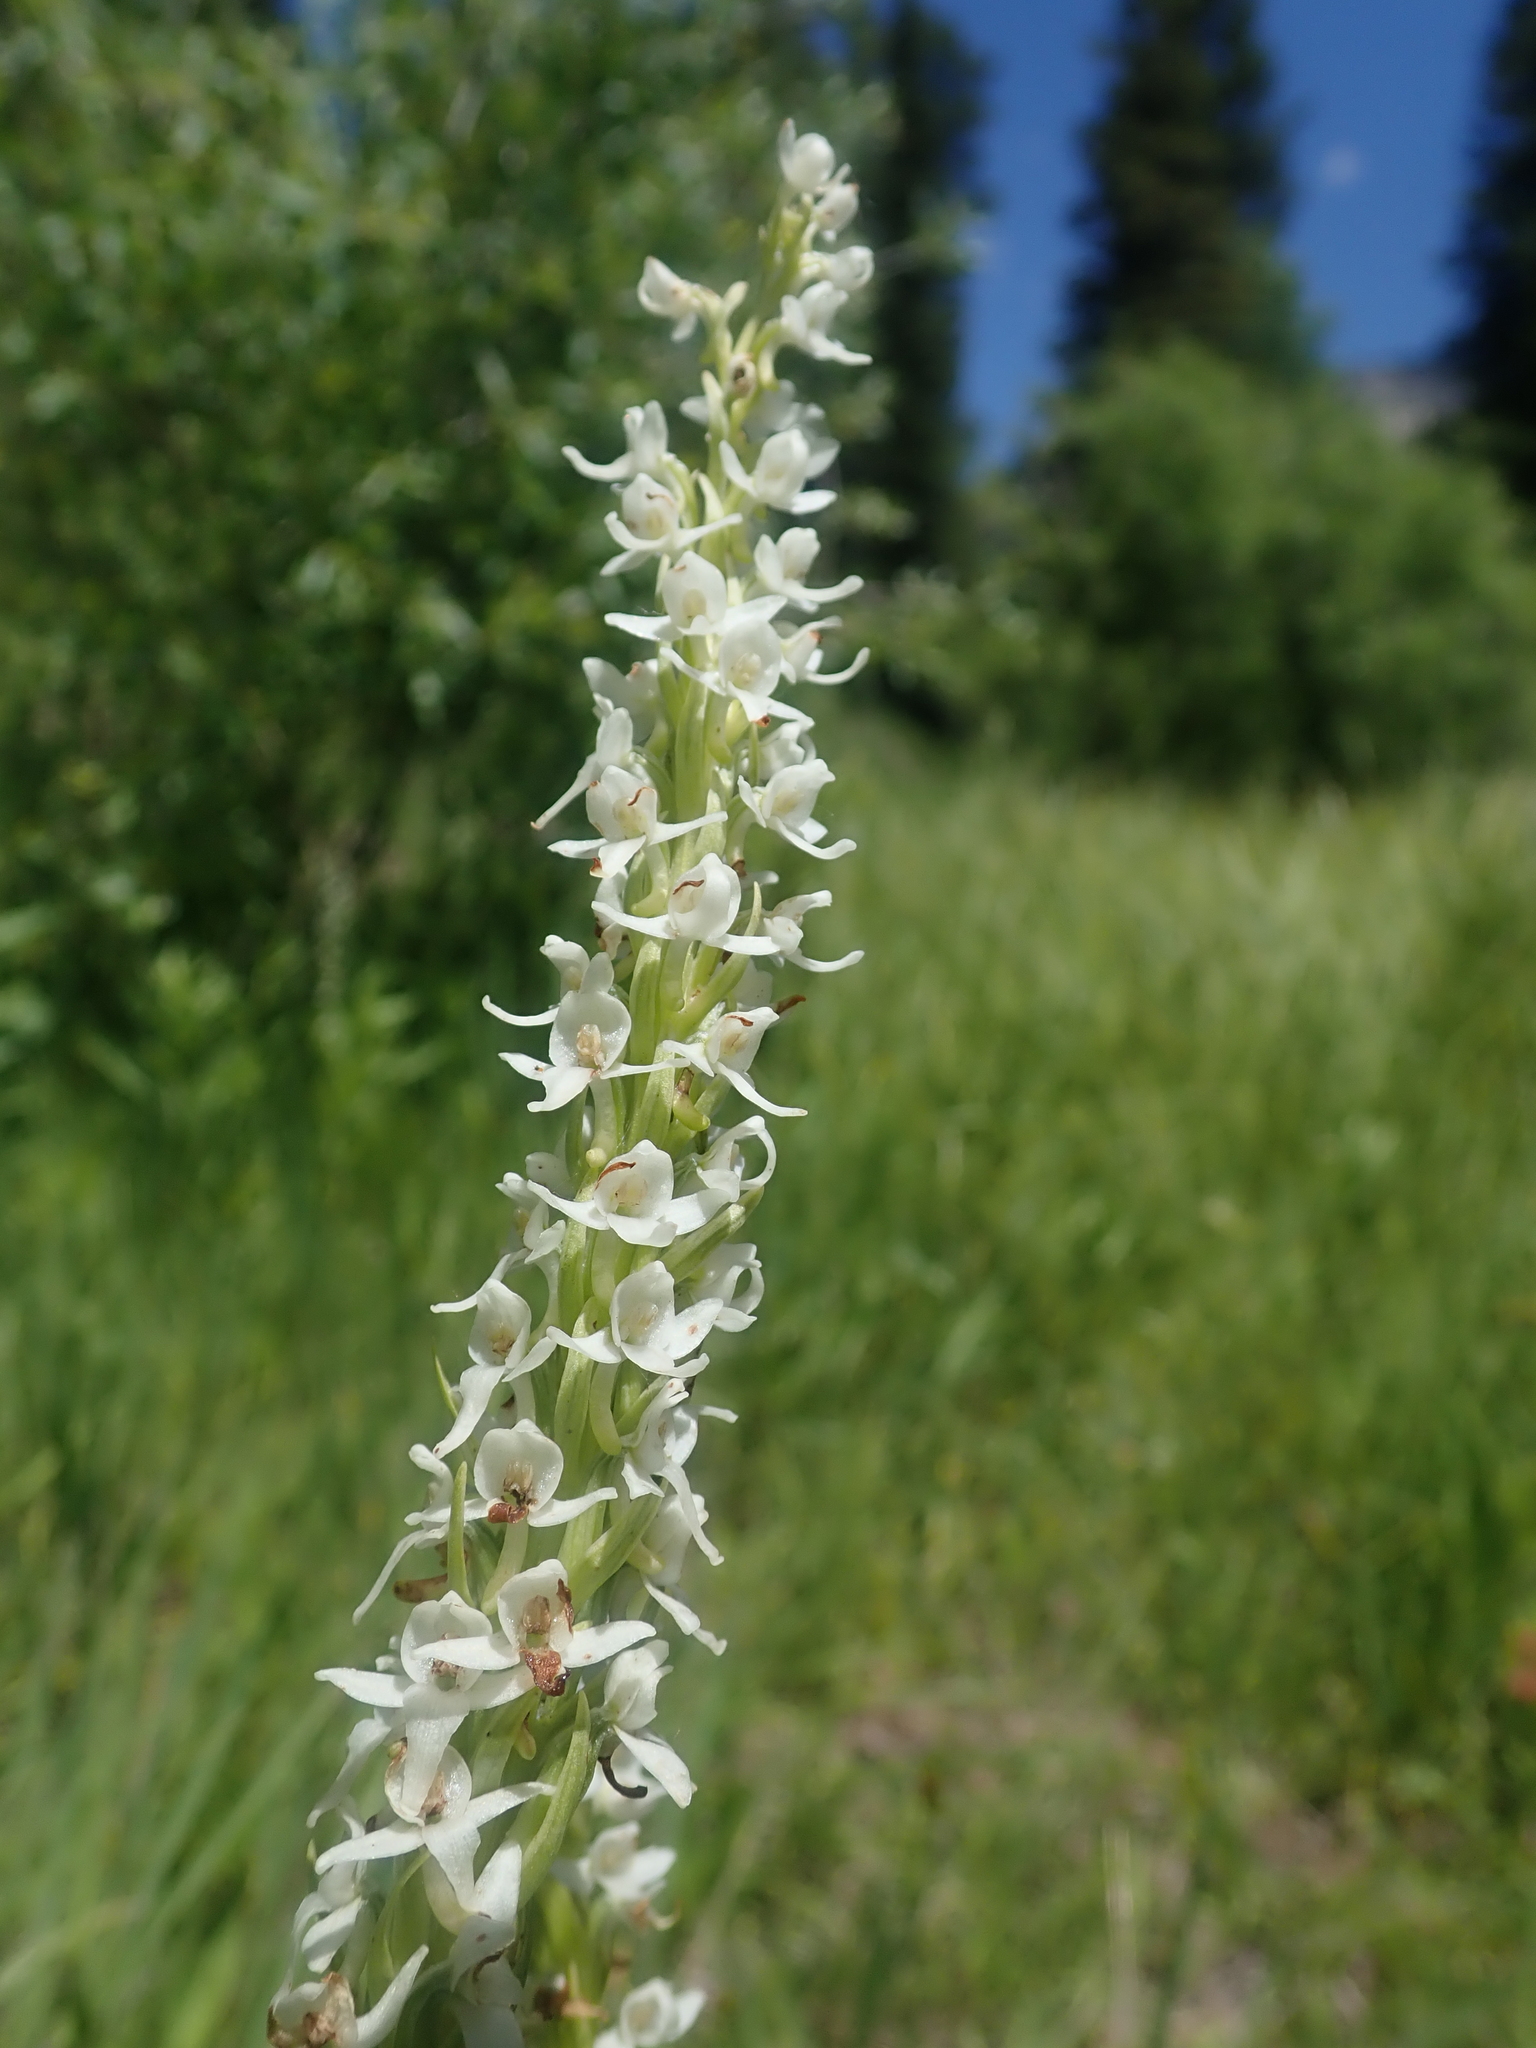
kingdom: Plantae
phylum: Tracheophyta
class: Liliopsida
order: Asparagales
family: Orchidaceae
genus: Platanthera
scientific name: Platanthera dilatata
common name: Bog candles
